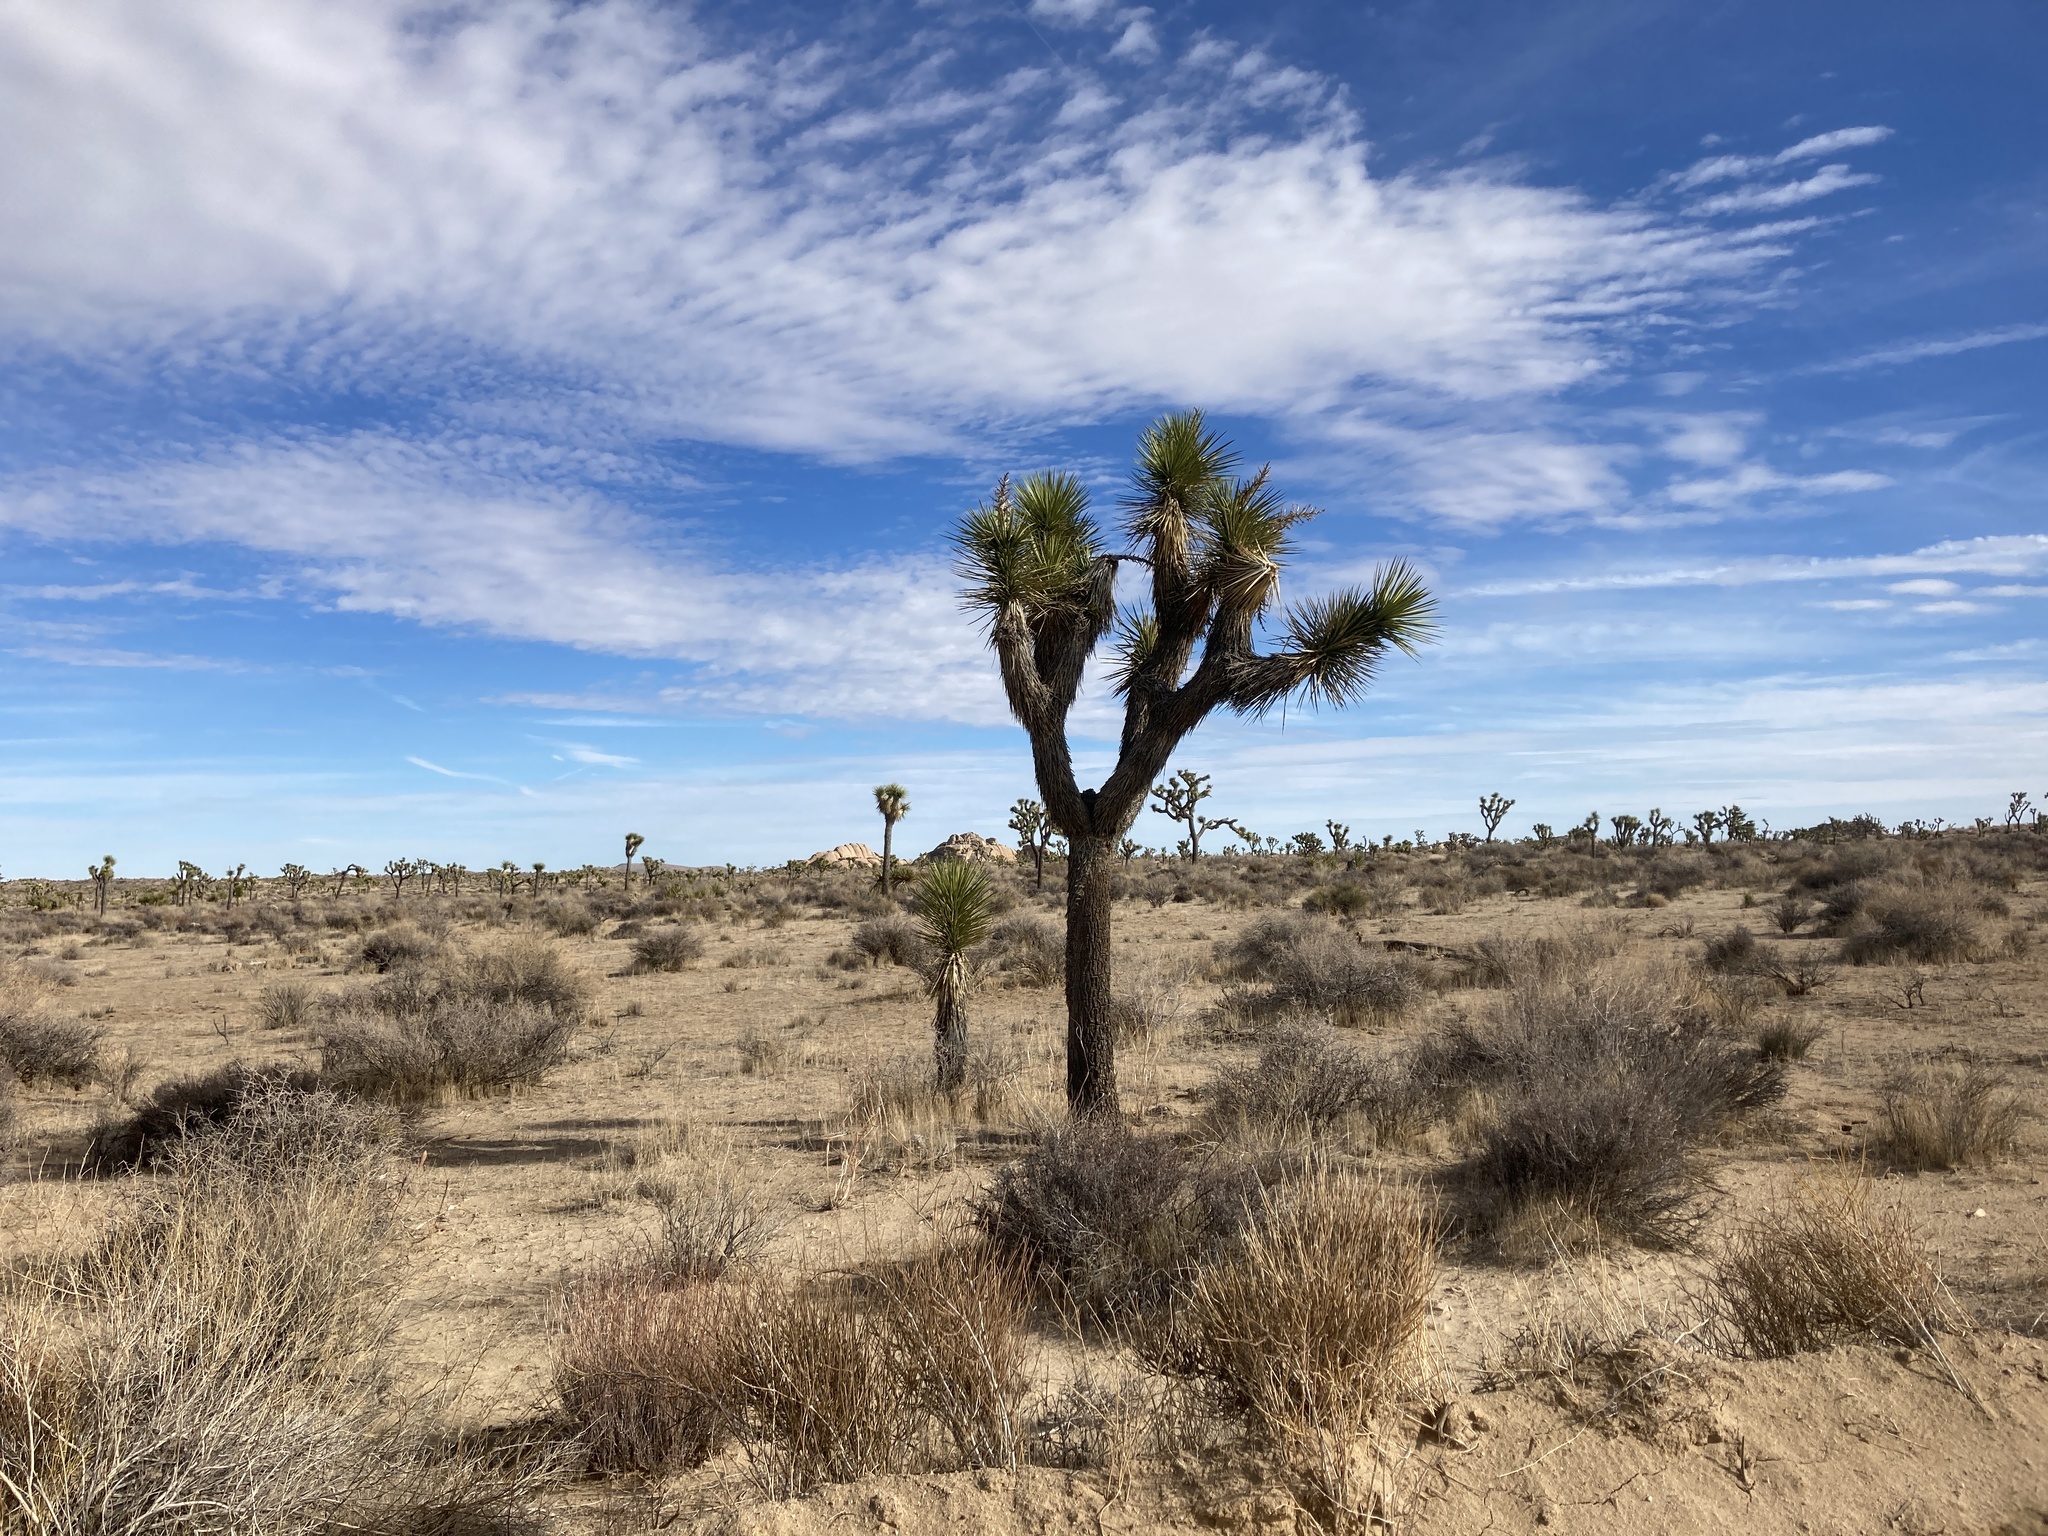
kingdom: Plantae
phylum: Tracheophyta
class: Liliopsida
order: Asparagales
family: Asparagaceae
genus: Yucca
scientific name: Yucca brevifolia
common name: Joshua tree
